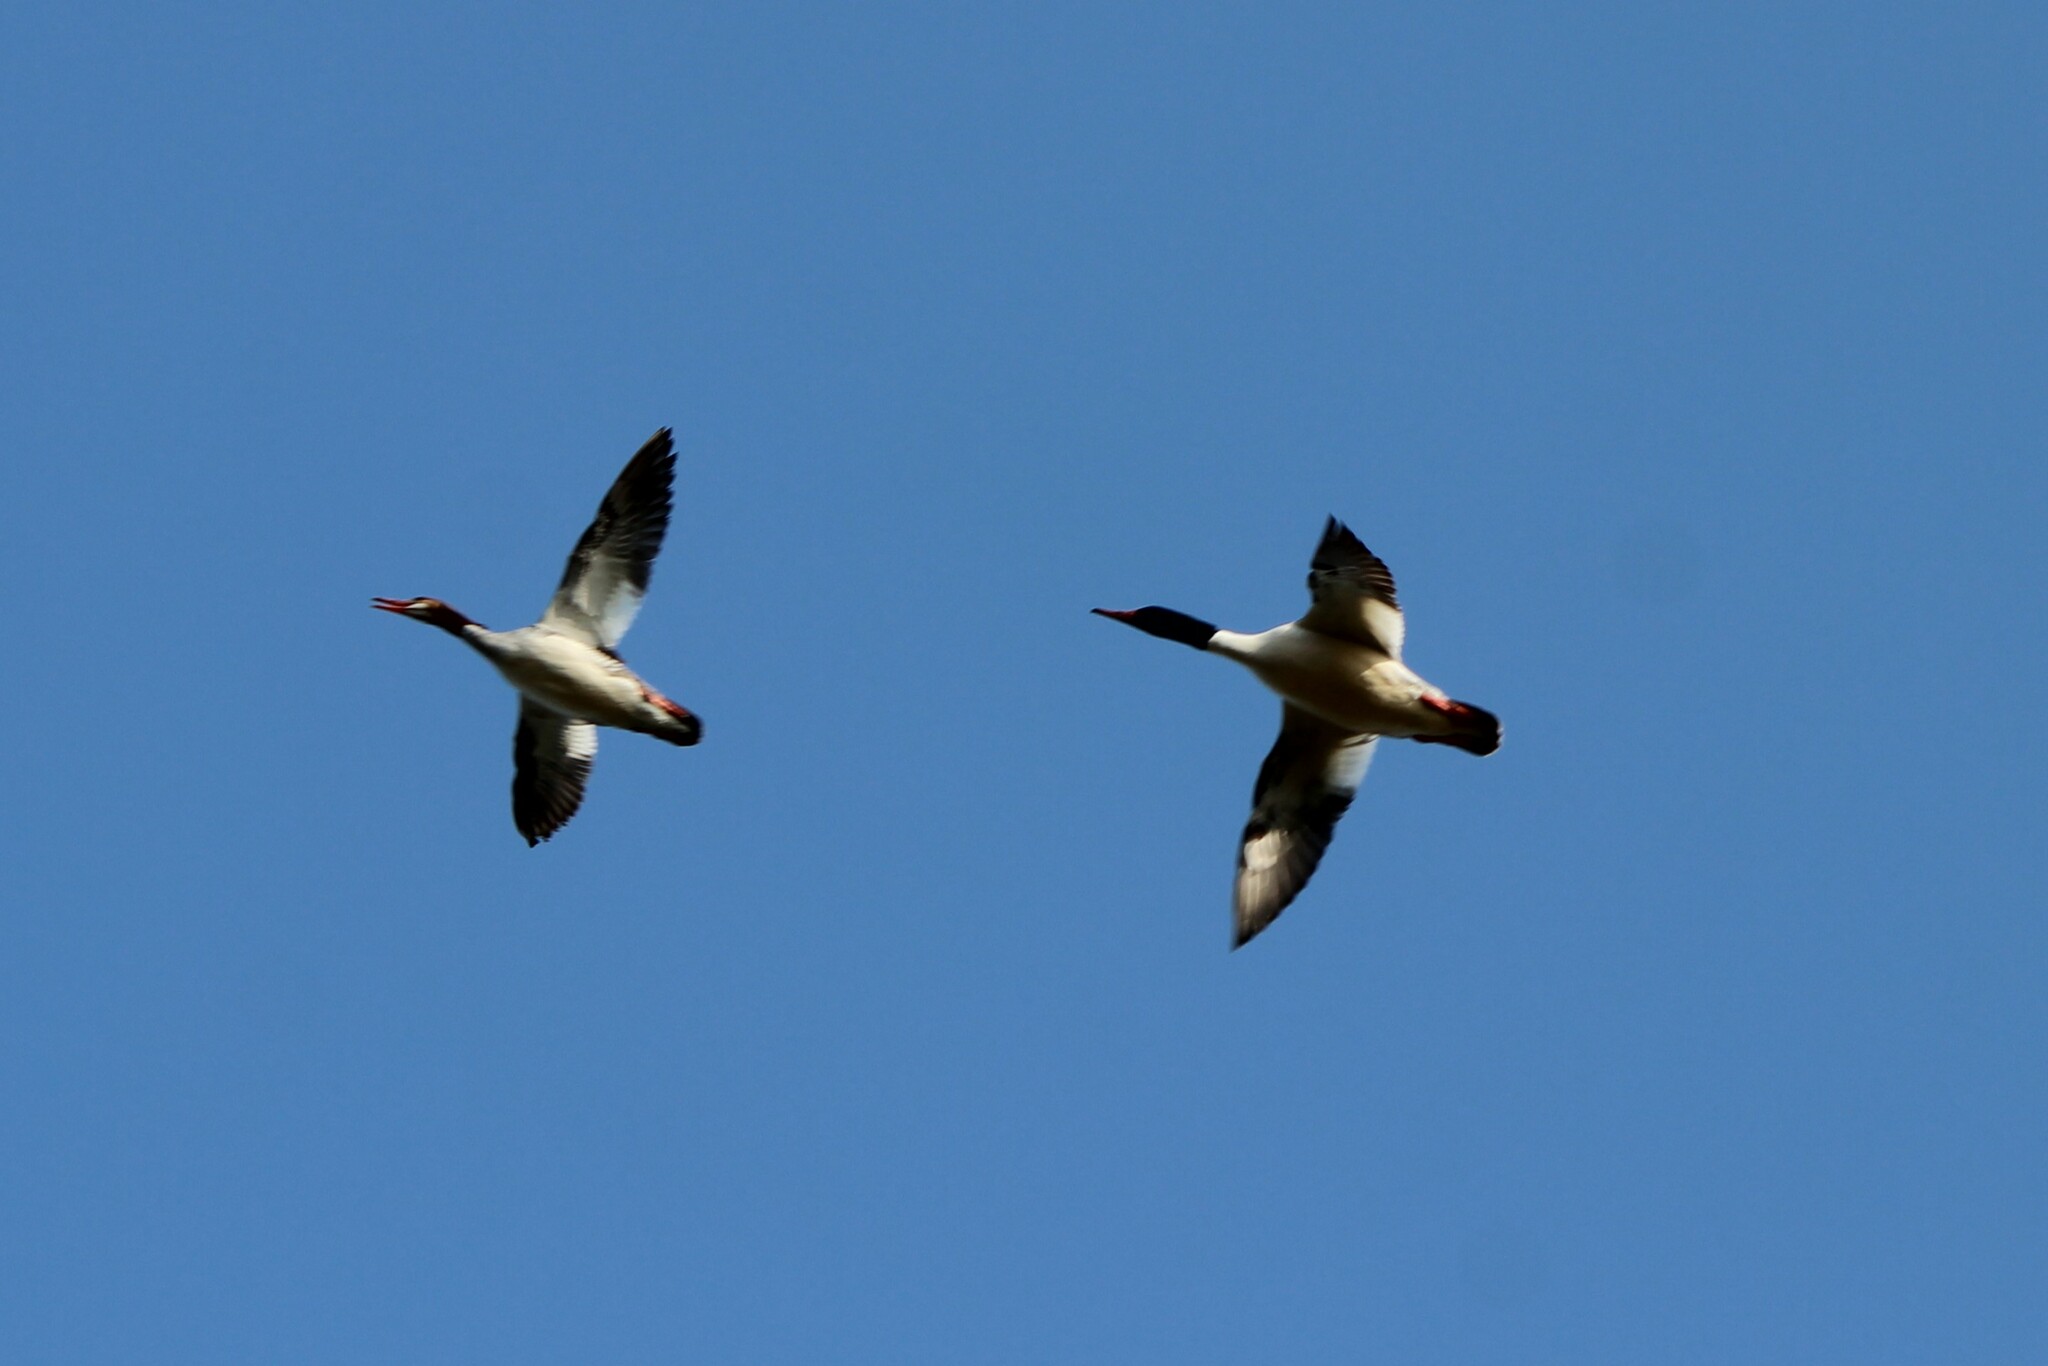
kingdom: Animalia
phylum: Chordata
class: Aves
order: Anseriformes
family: Anatidae
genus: Mergus
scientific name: Mergus merganser
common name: Common merganser
